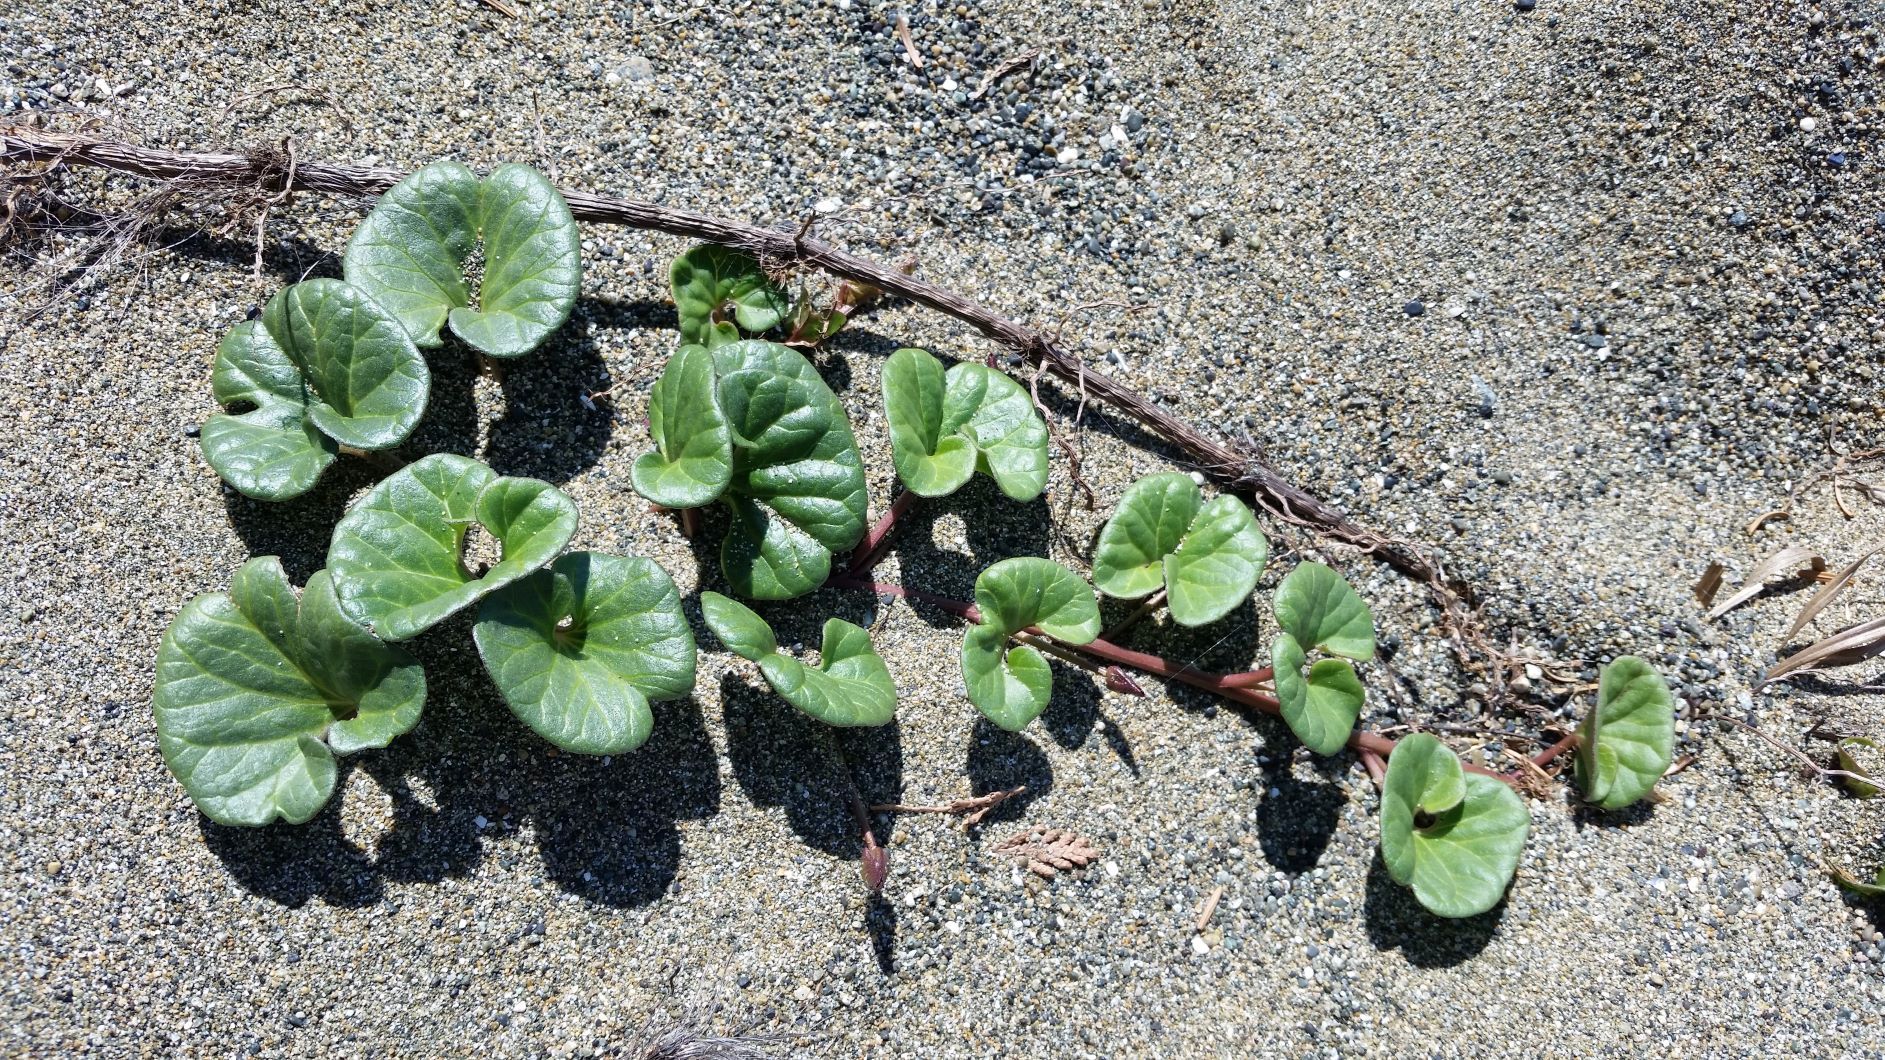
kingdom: Plantae
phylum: Tracheophyta
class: Magnoliopsida
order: Solanales
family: Convolvulaceae
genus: Calystegia
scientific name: Calystegia soldanella
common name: Sea bindweed
